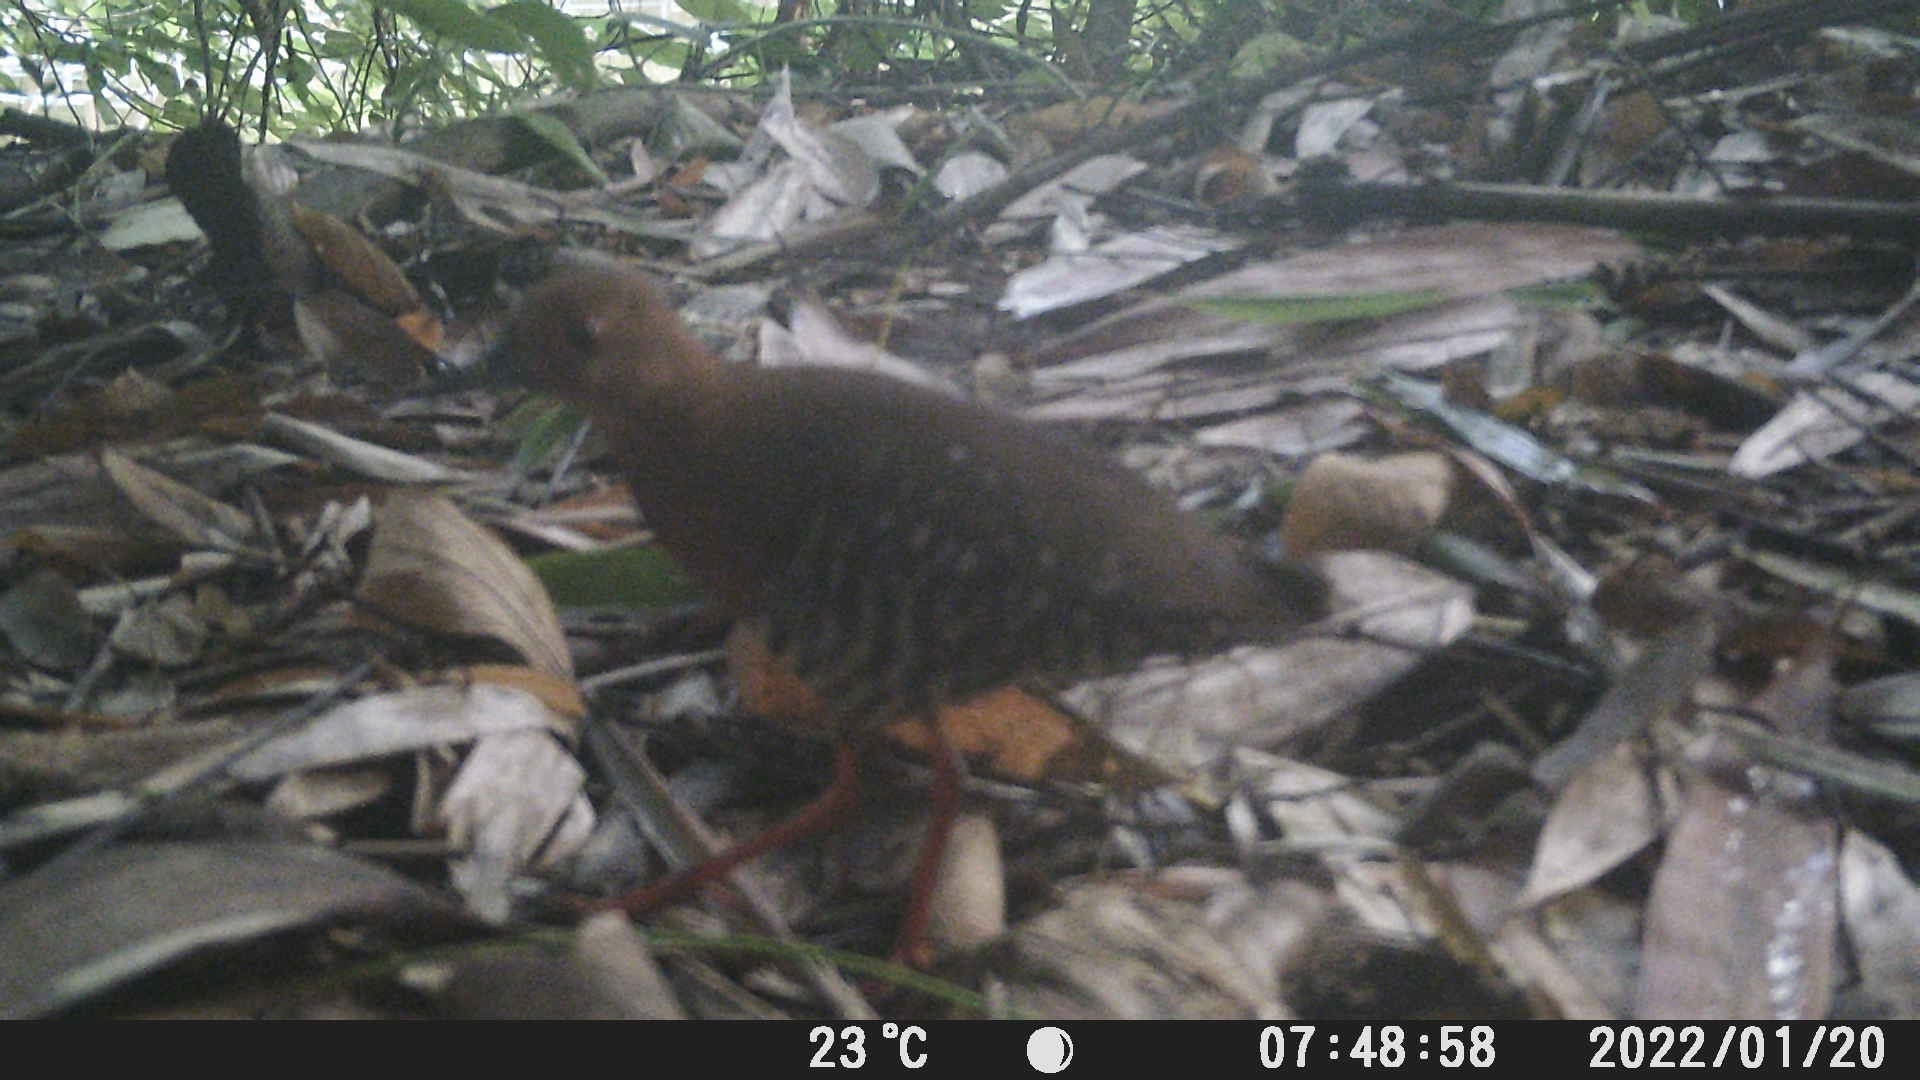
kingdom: Animalia
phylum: Chordata
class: Aves
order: Gruiformes
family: Rallidae
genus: Rallina
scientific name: Rallina fasciata
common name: Red-legged crake
